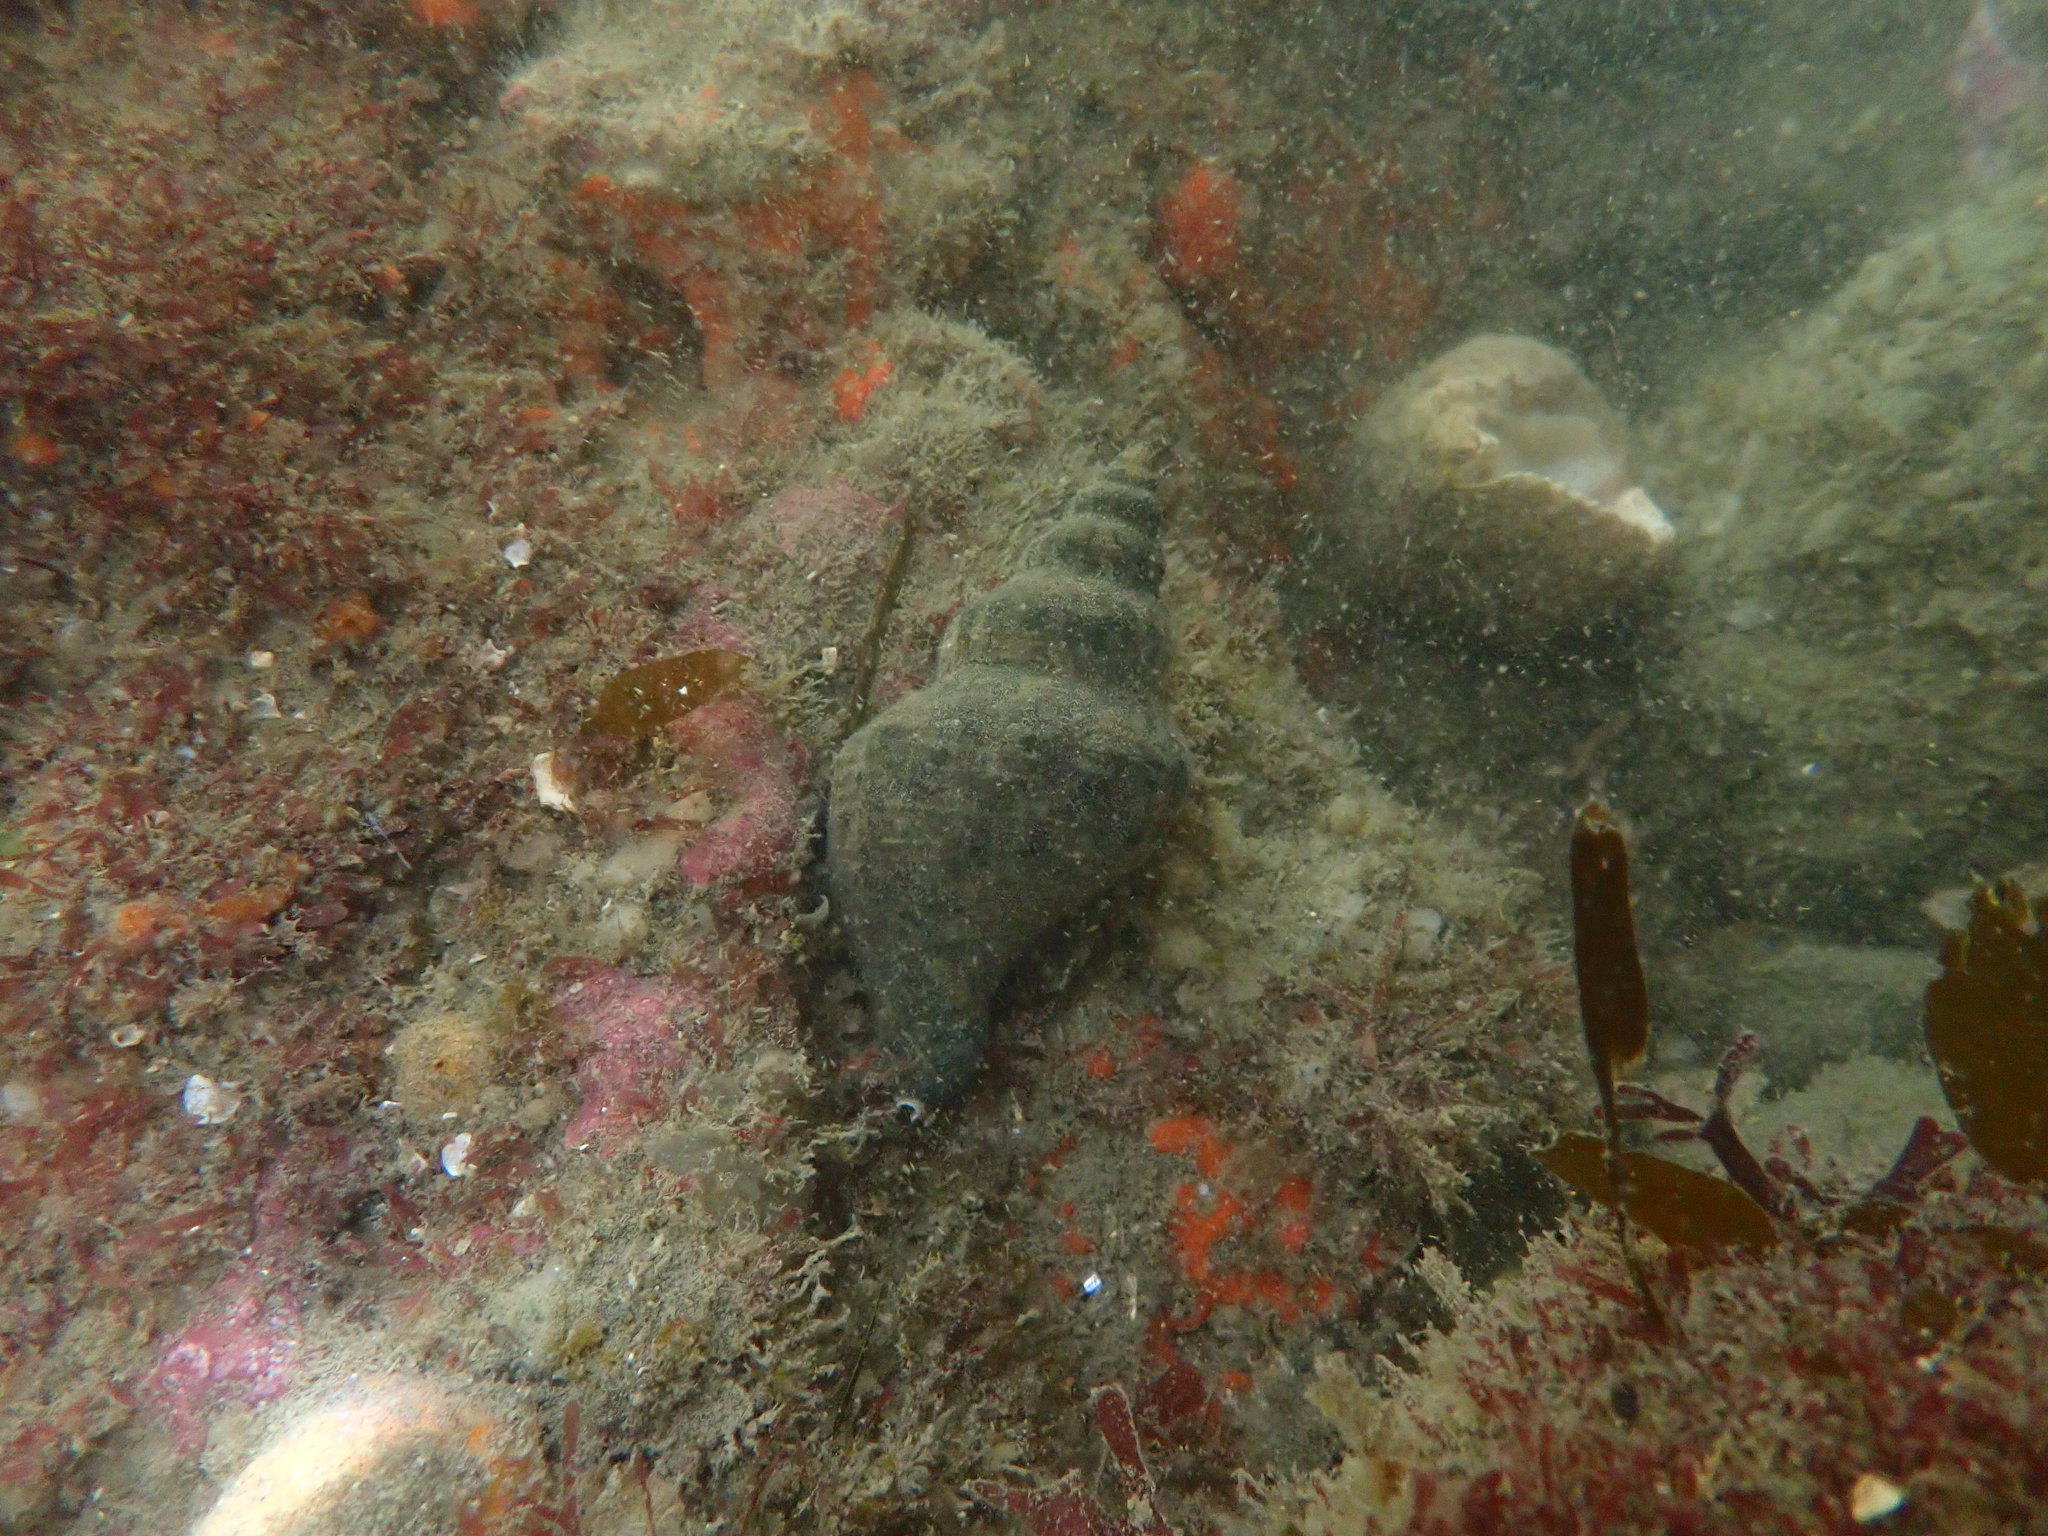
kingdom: Animalia
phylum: Mollusca
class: Gastropoda
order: Neogastropoda
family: Austrosiphonidae
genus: Penion
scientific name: Penion sulcatus
